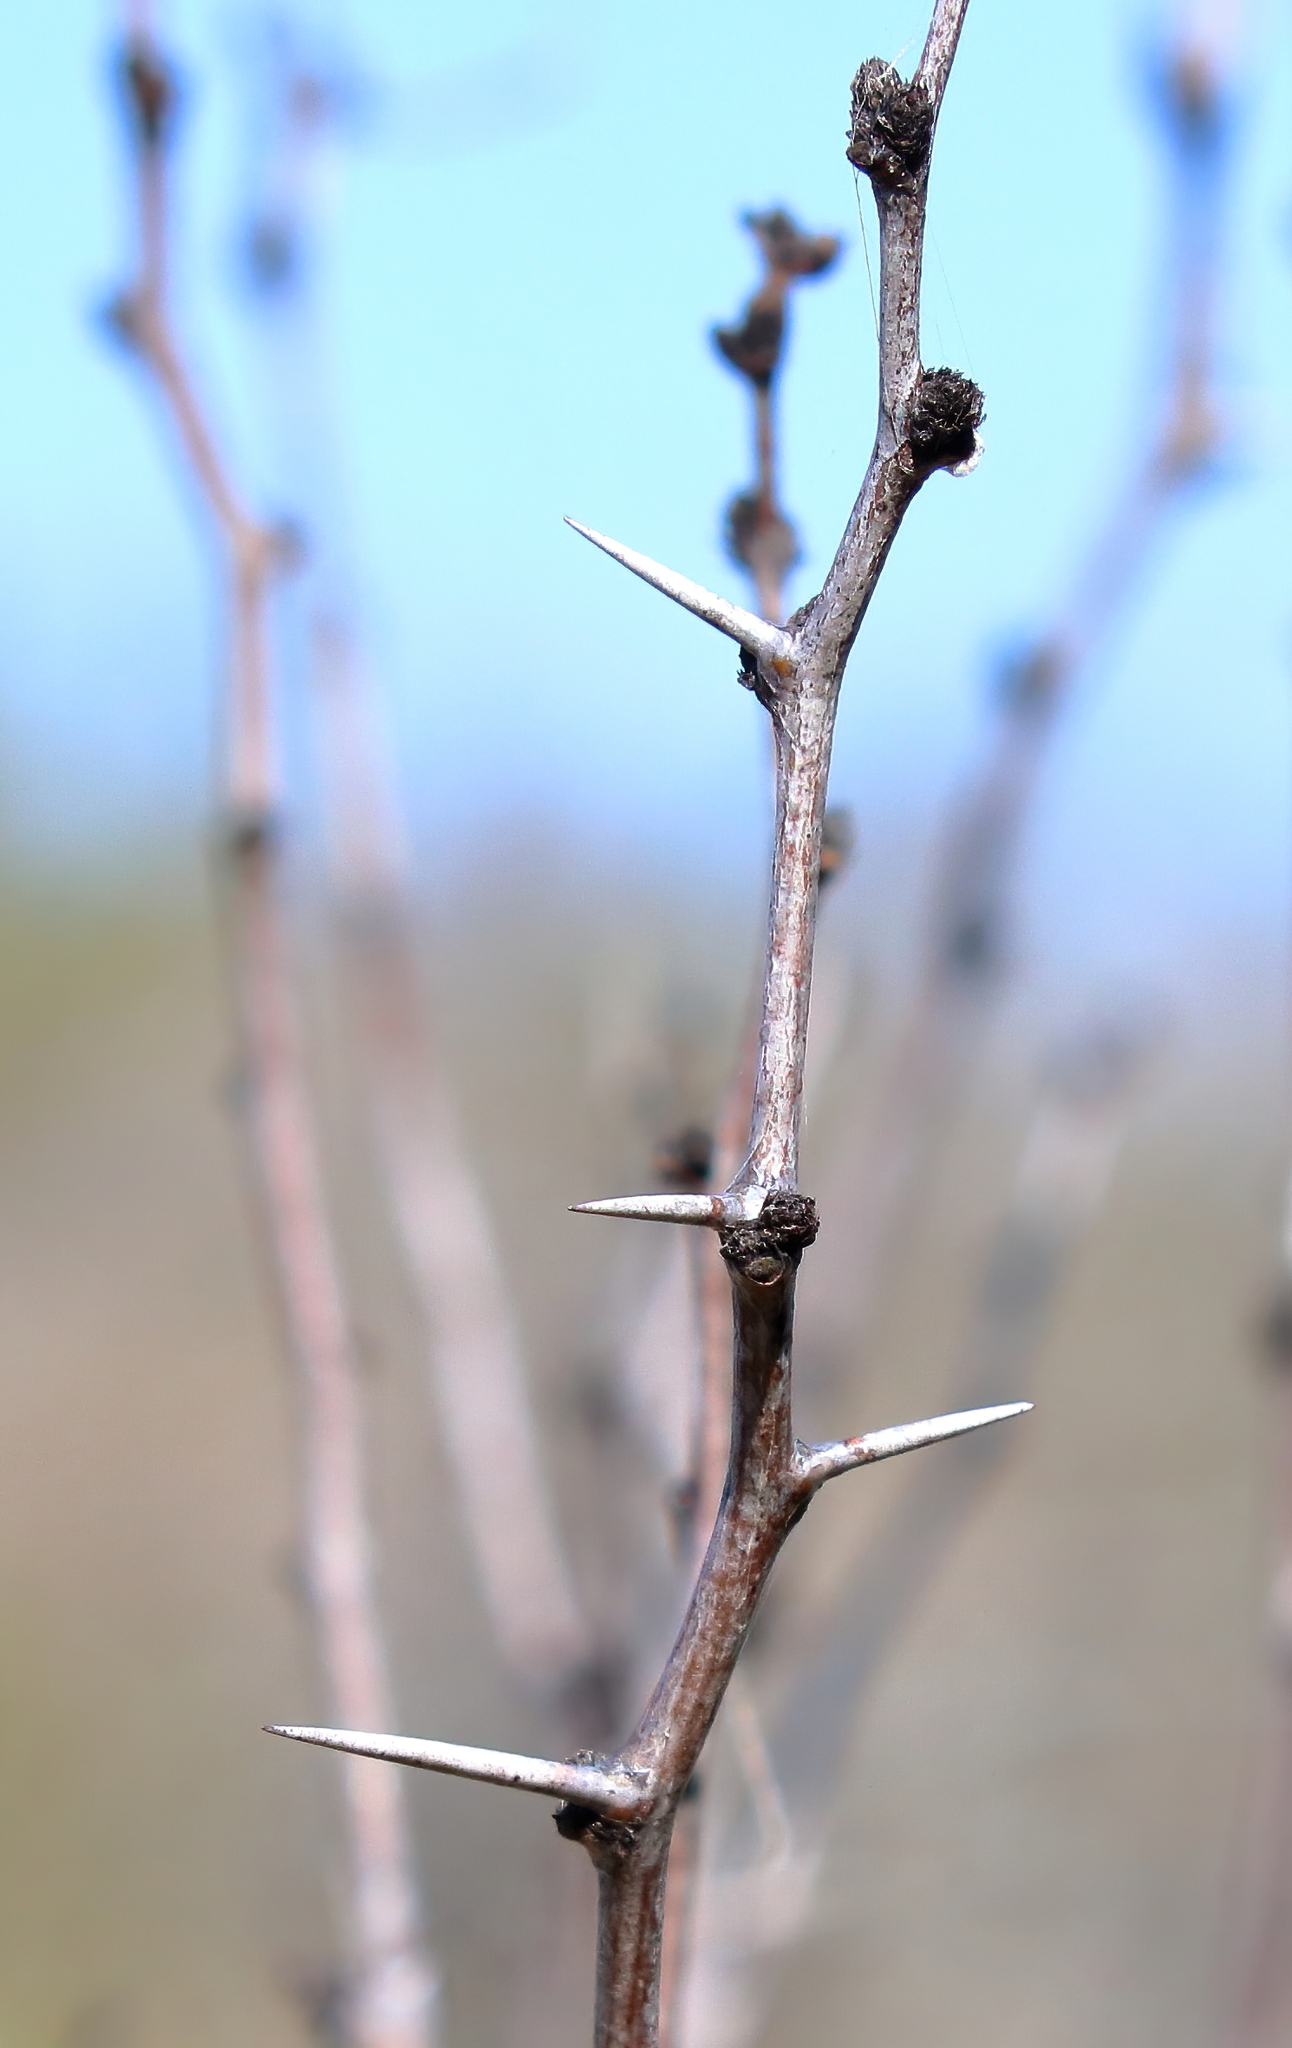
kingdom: Plantae
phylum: Tracheophyta
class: Magnoliopsida
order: Fabales
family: Fabaceae
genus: Prosopis
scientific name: Prosopis glandulosa
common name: Honey mesquite
